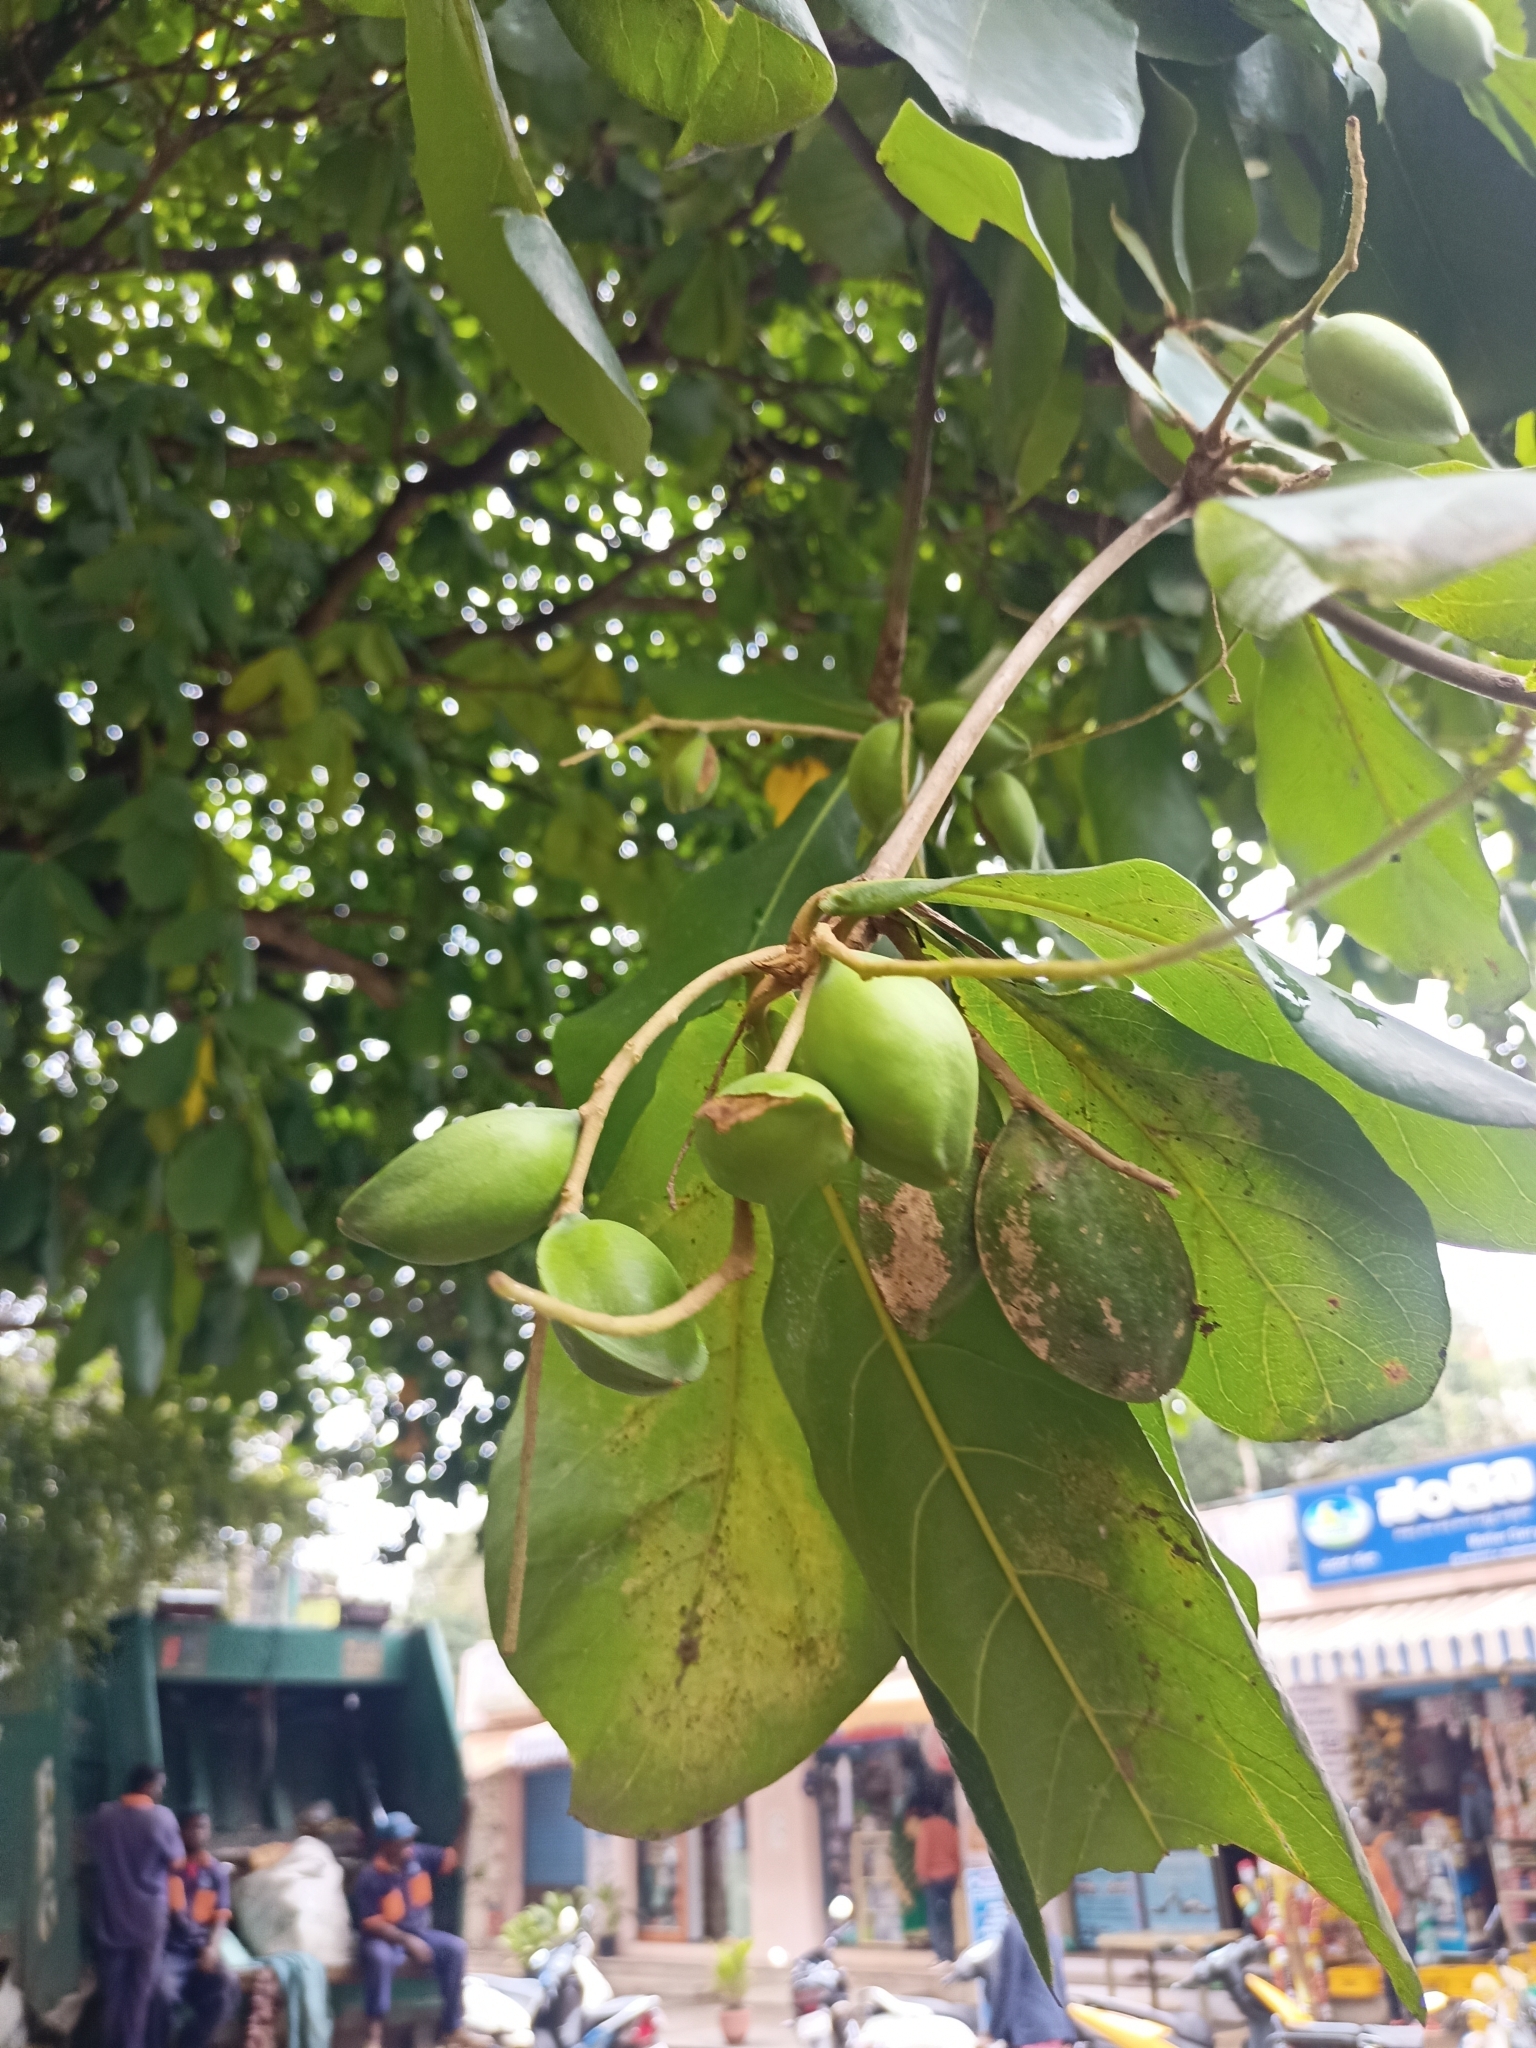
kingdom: Plantae
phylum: Tracheophyta
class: Magnoliopsida
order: Myrtales
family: Combretaceae
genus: Terminalia
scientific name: Terminalia catappa
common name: Tropical almond
